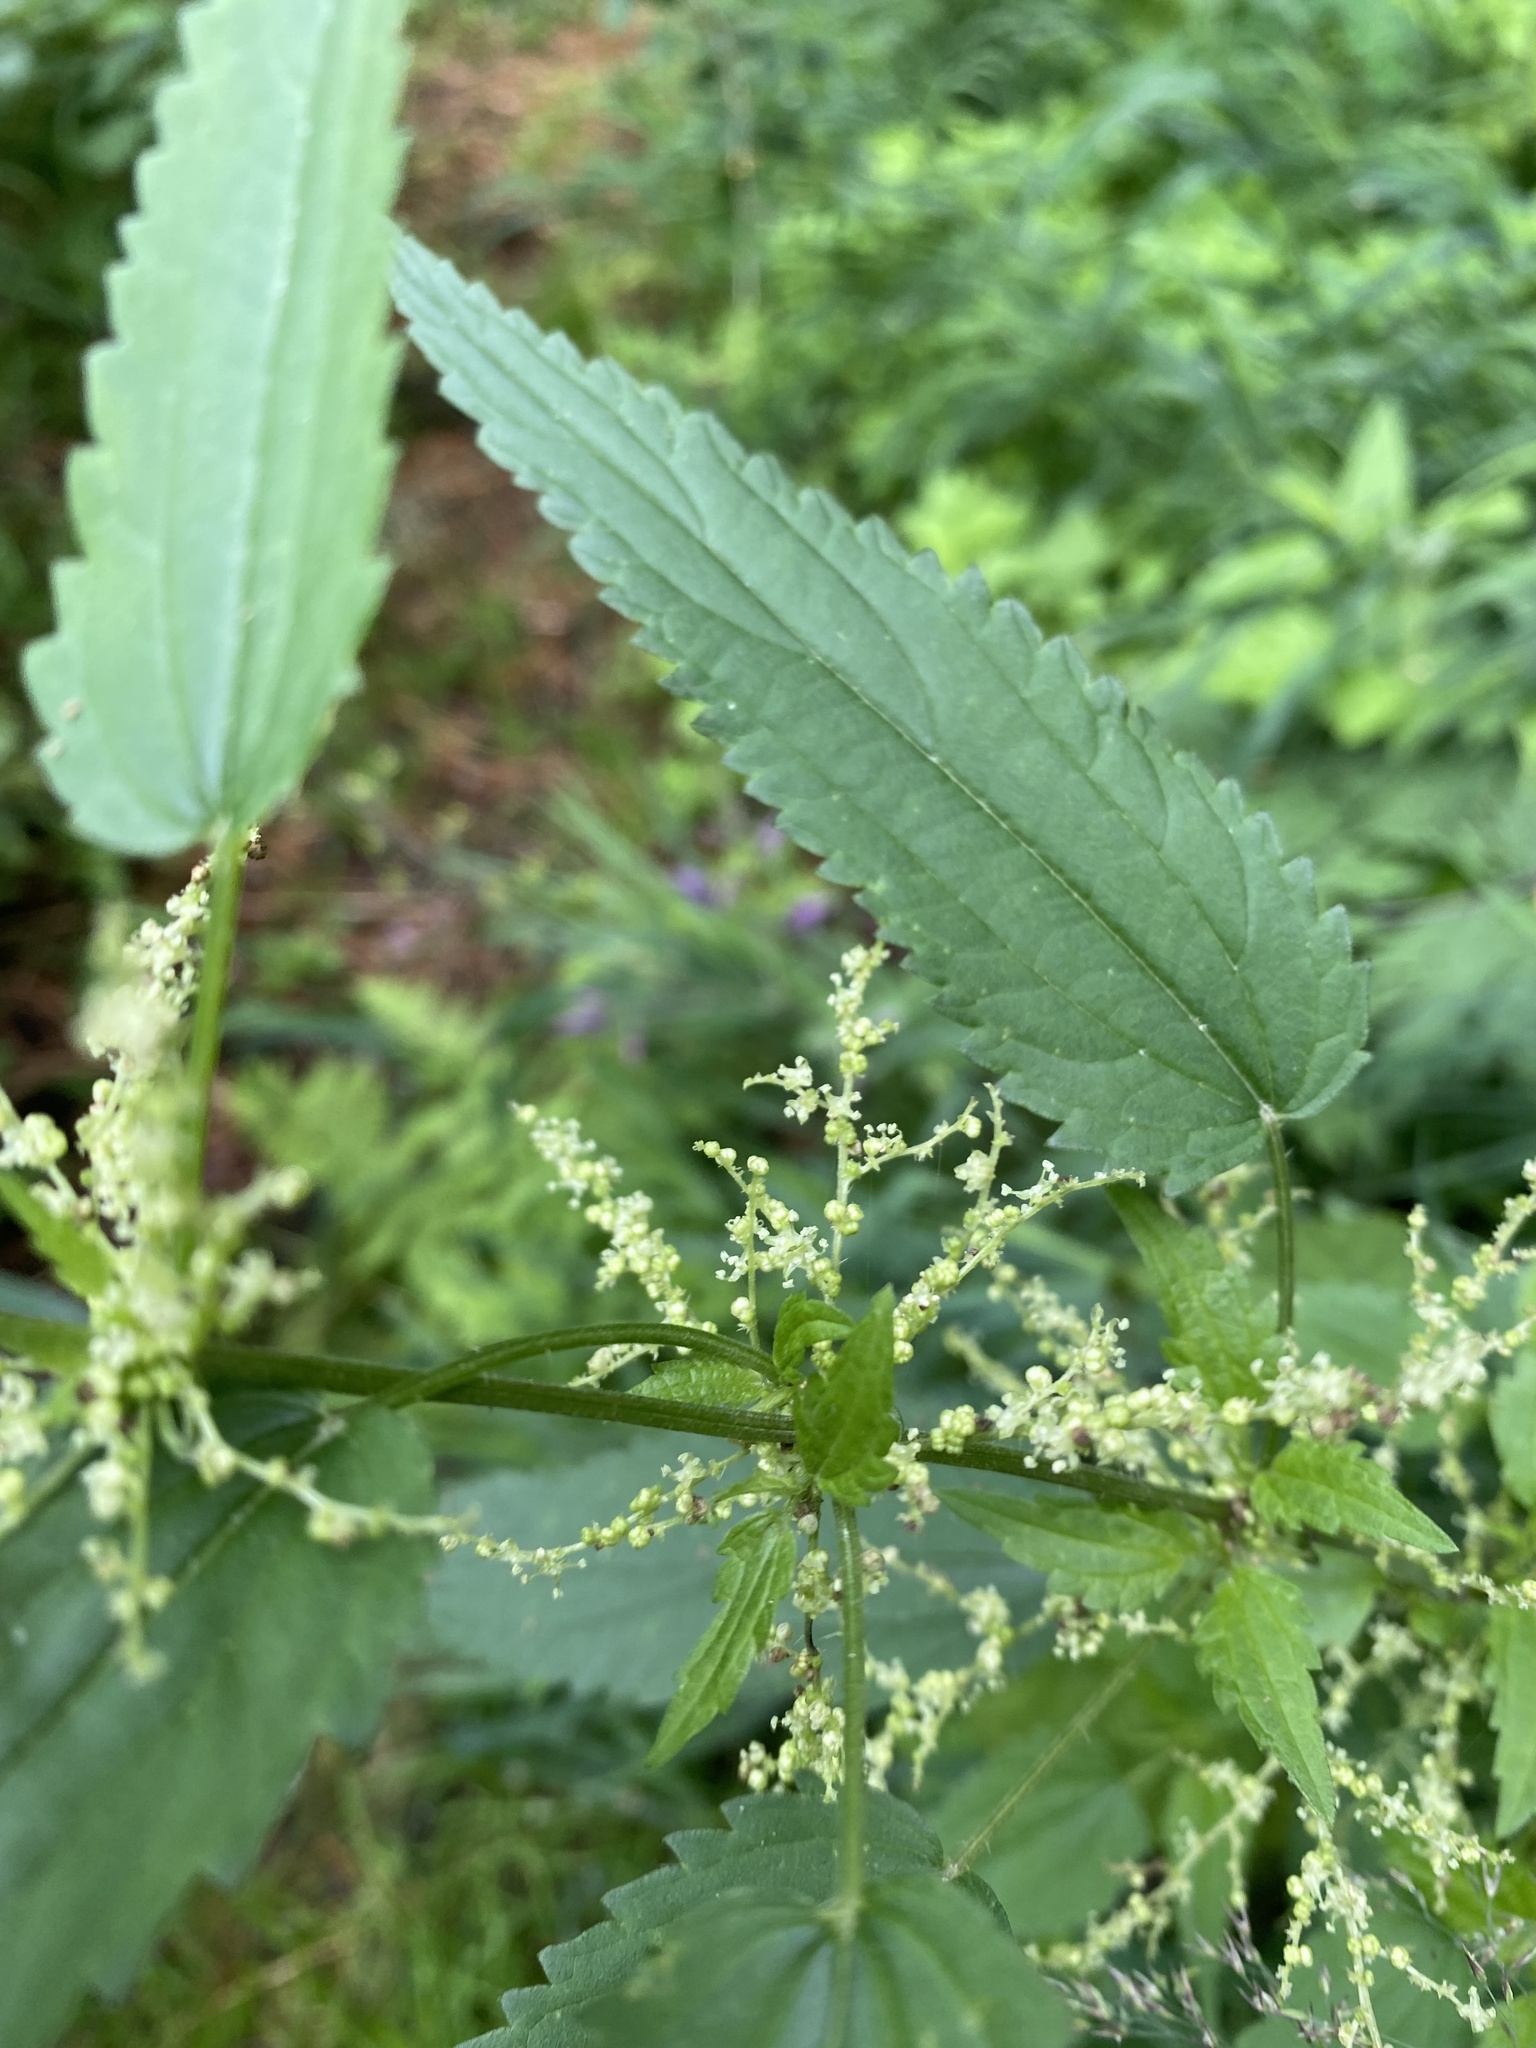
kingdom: Plantae
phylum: Tracheophyta
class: Magnoliopsida
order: Rosales
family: Urticaceae
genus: Urtica
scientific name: Urtica dioica
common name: Common nettle
